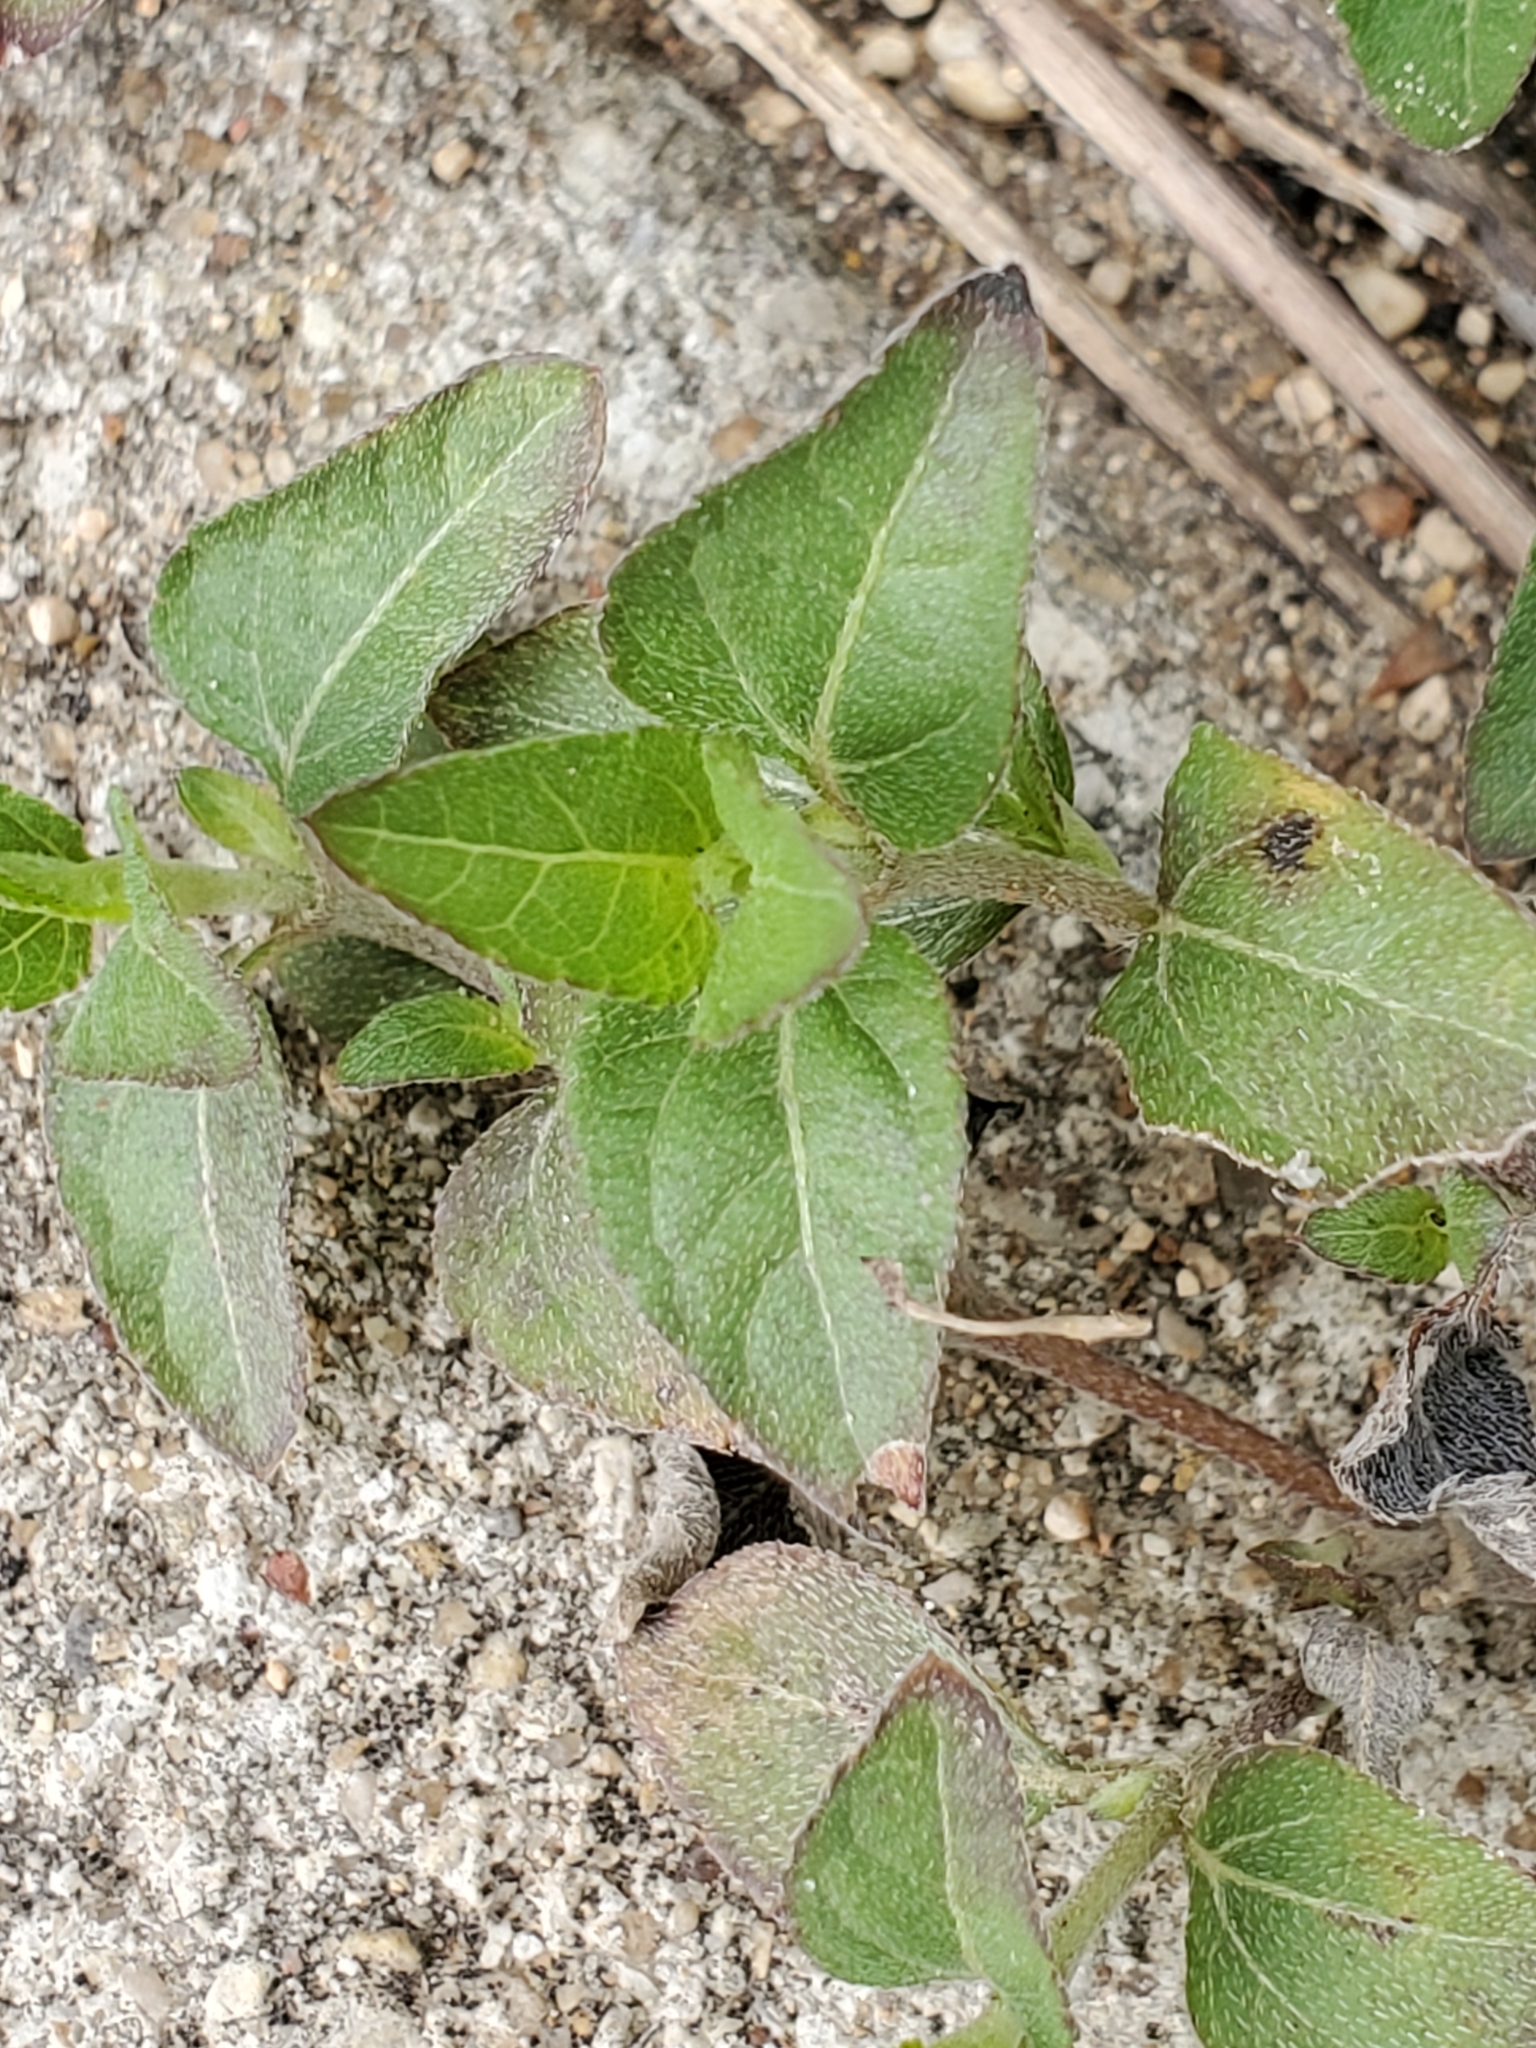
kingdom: Plantae
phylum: Tracheophyta
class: Magnoliopsida
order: Asterales
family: Asteraceae
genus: Calyptocarpus
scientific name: Calyptocarpus vialis
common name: Straggler daisy
